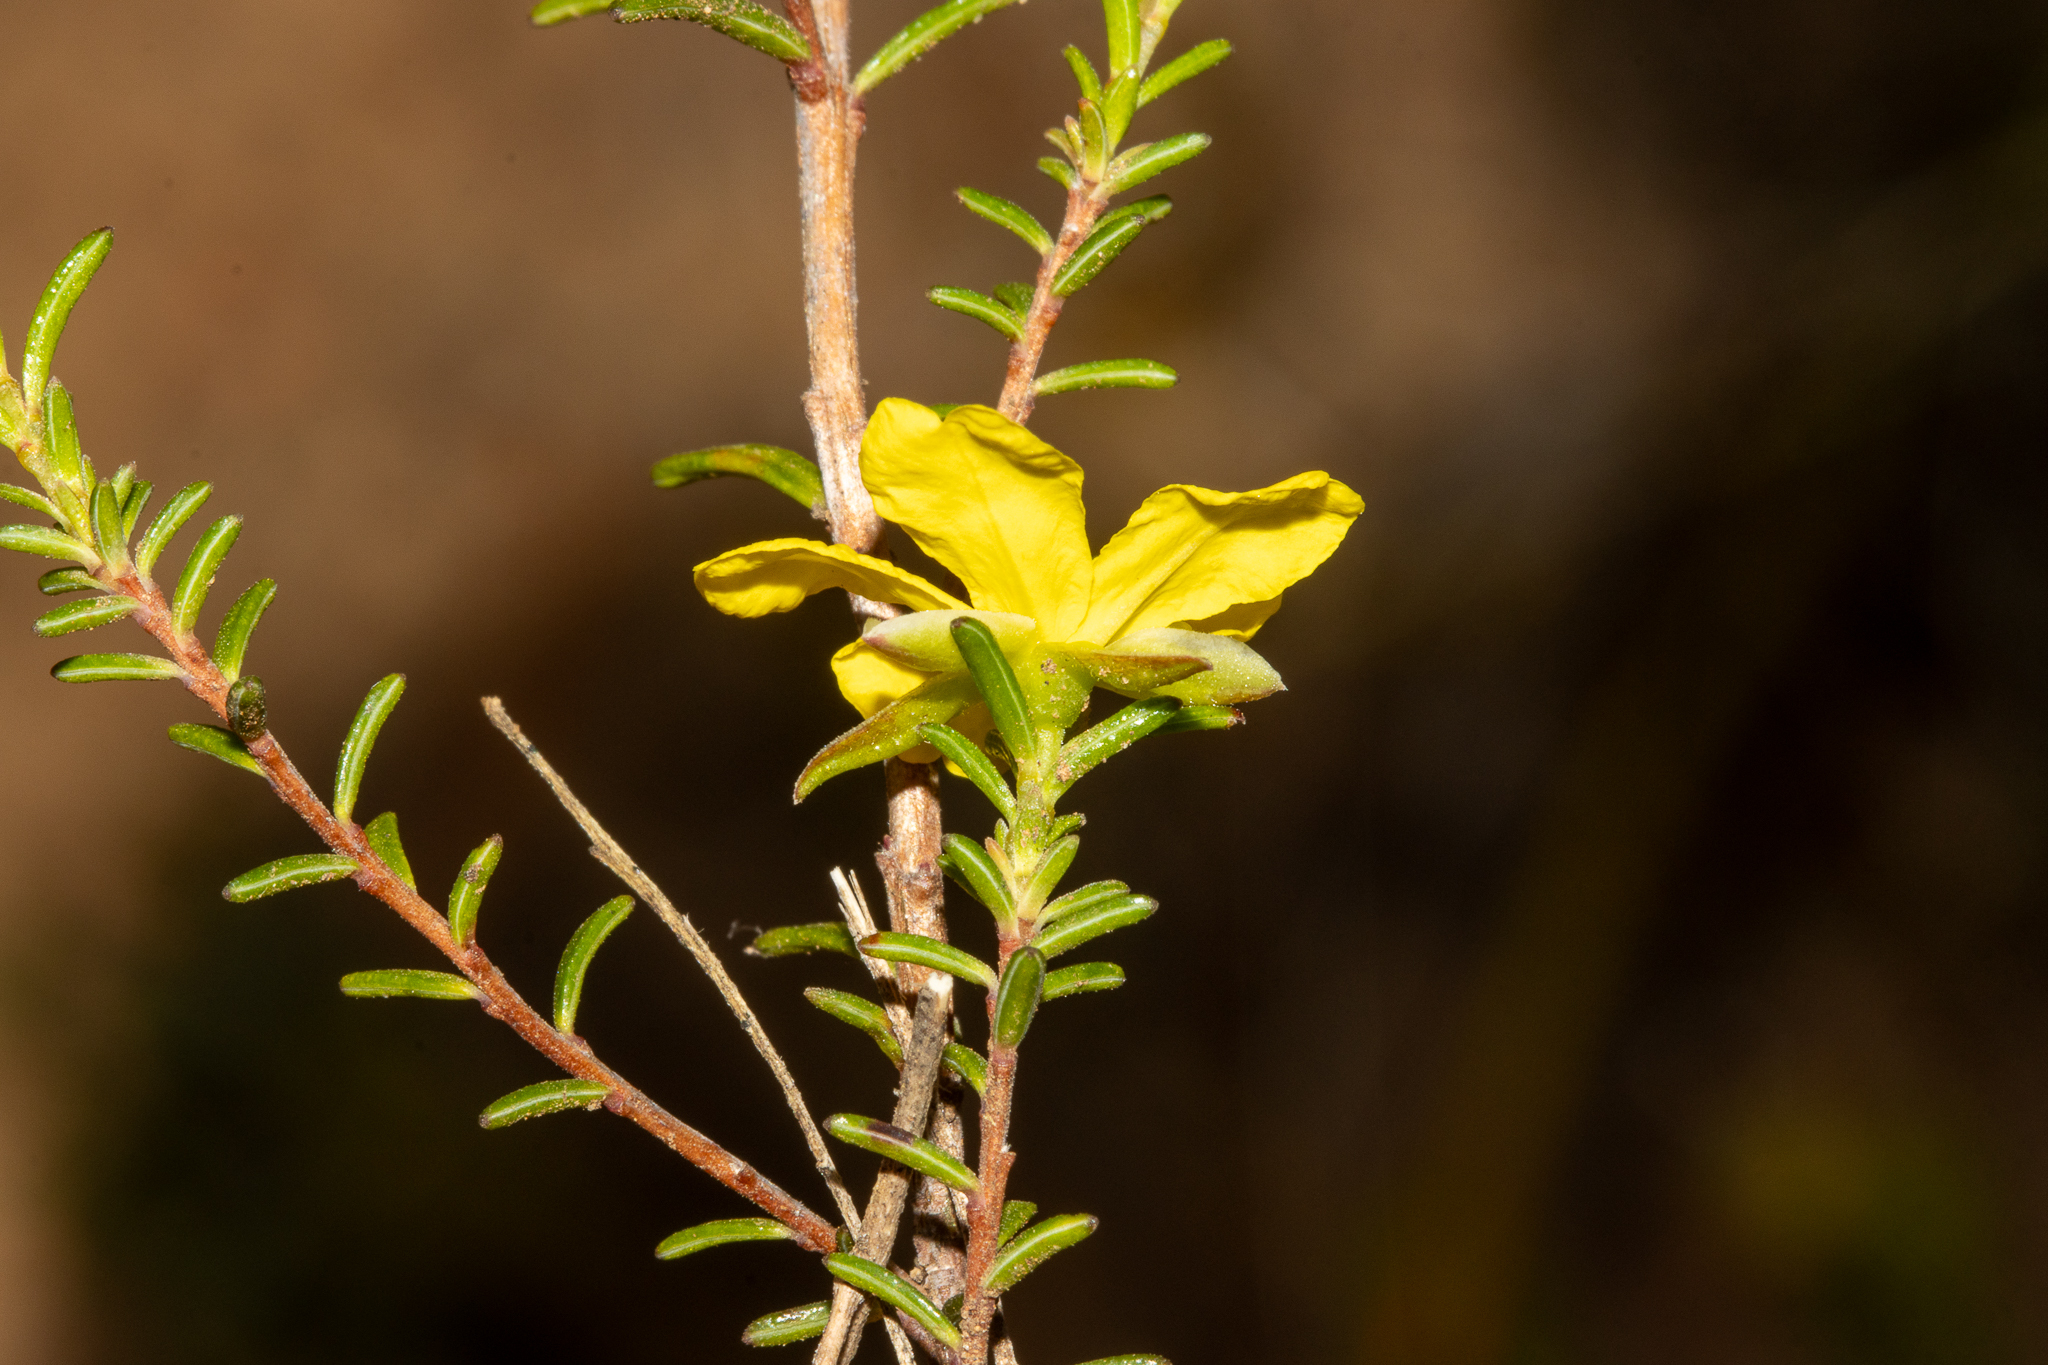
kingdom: Plantae
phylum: Tracheophyta
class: Magnoliopsida
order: Dilleniales
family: Dilleniaceae
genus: Hibbertia
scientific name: Hibbertia devitata
